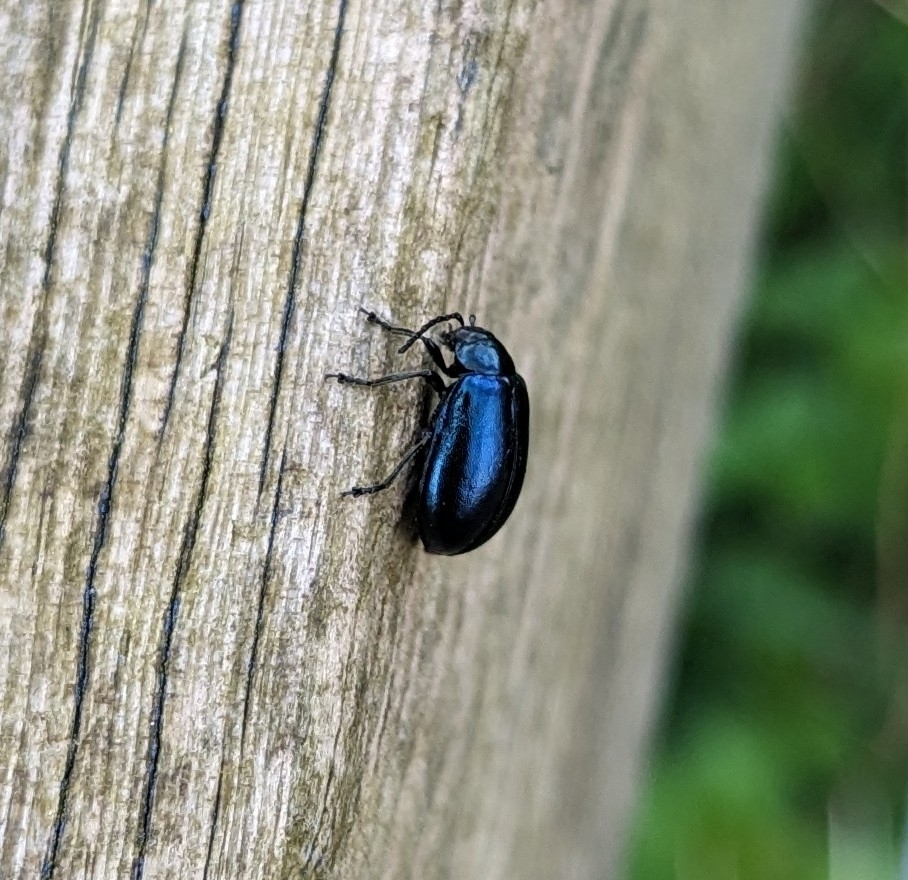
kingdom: Animalia
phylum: Arthropoda
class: Insecta
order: Coleoptera
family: Chrysomelidae
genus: Agelastica
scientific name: Agelastica alni
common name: Alder leaf beetle
